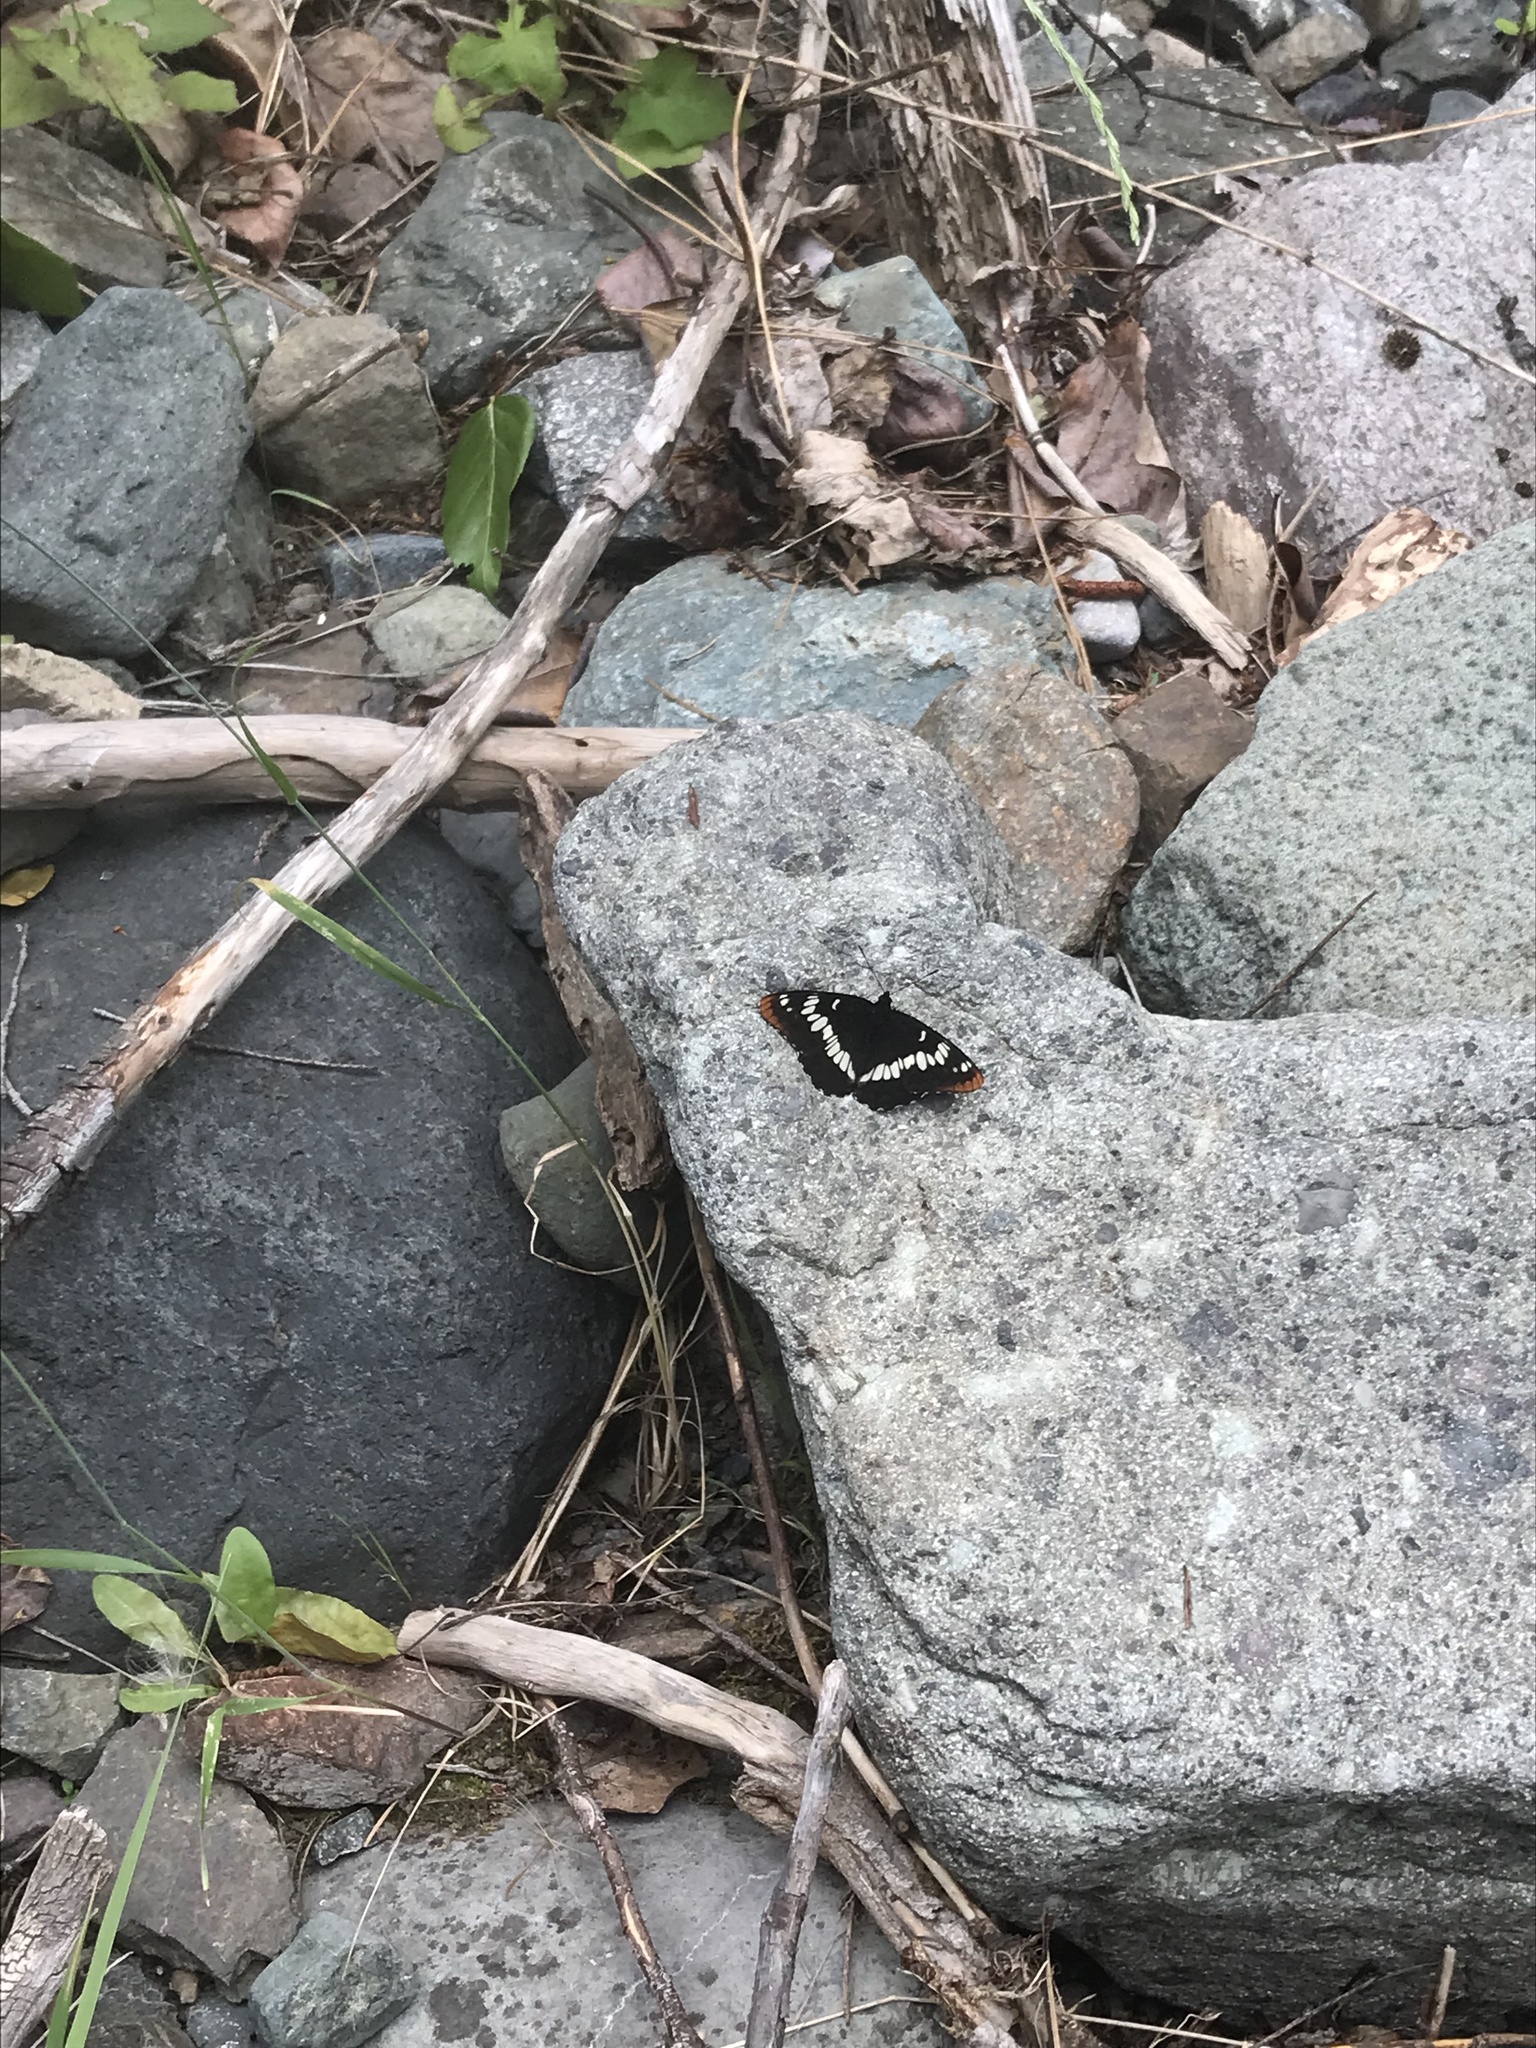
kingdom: Animalia
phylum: Arthropoda
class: Insecta
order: Lepidoptera
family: Nymphalidae
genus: Limenitis
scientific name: Limenitis lorquini
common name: Lorquin's admiral
